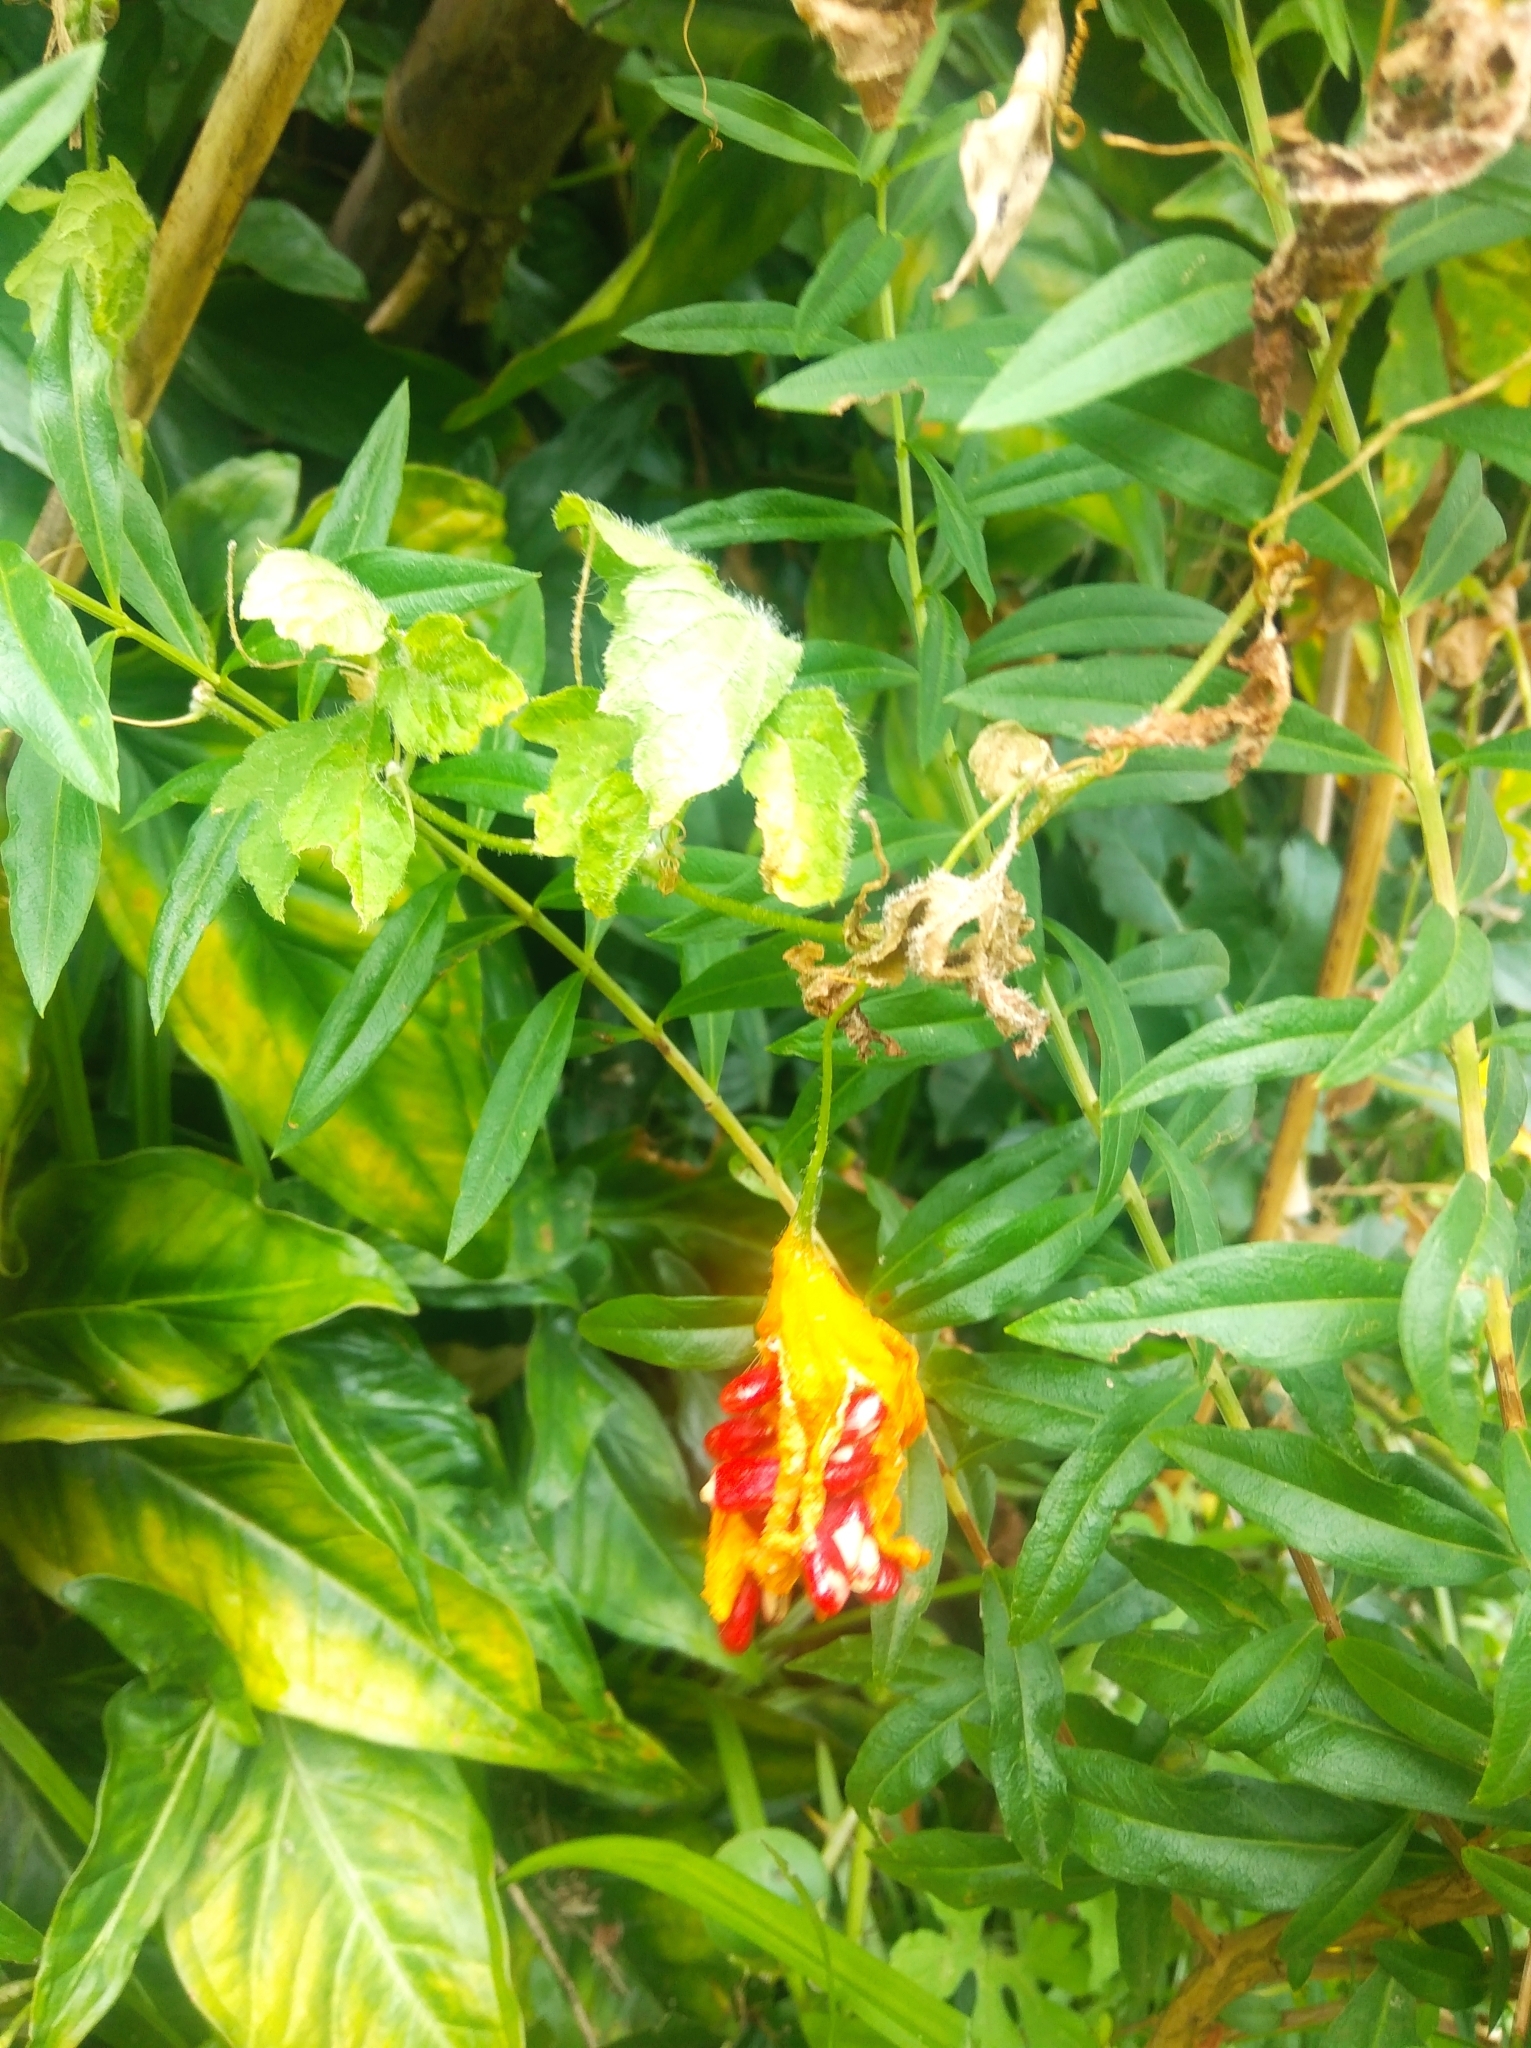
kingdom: Plantae
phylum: Tracheophyta
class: Magnoliopsida
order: Cucurbitales
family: Cucurbitaceae
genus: Momordica
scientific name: Momordica charantia
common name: Balsampear
